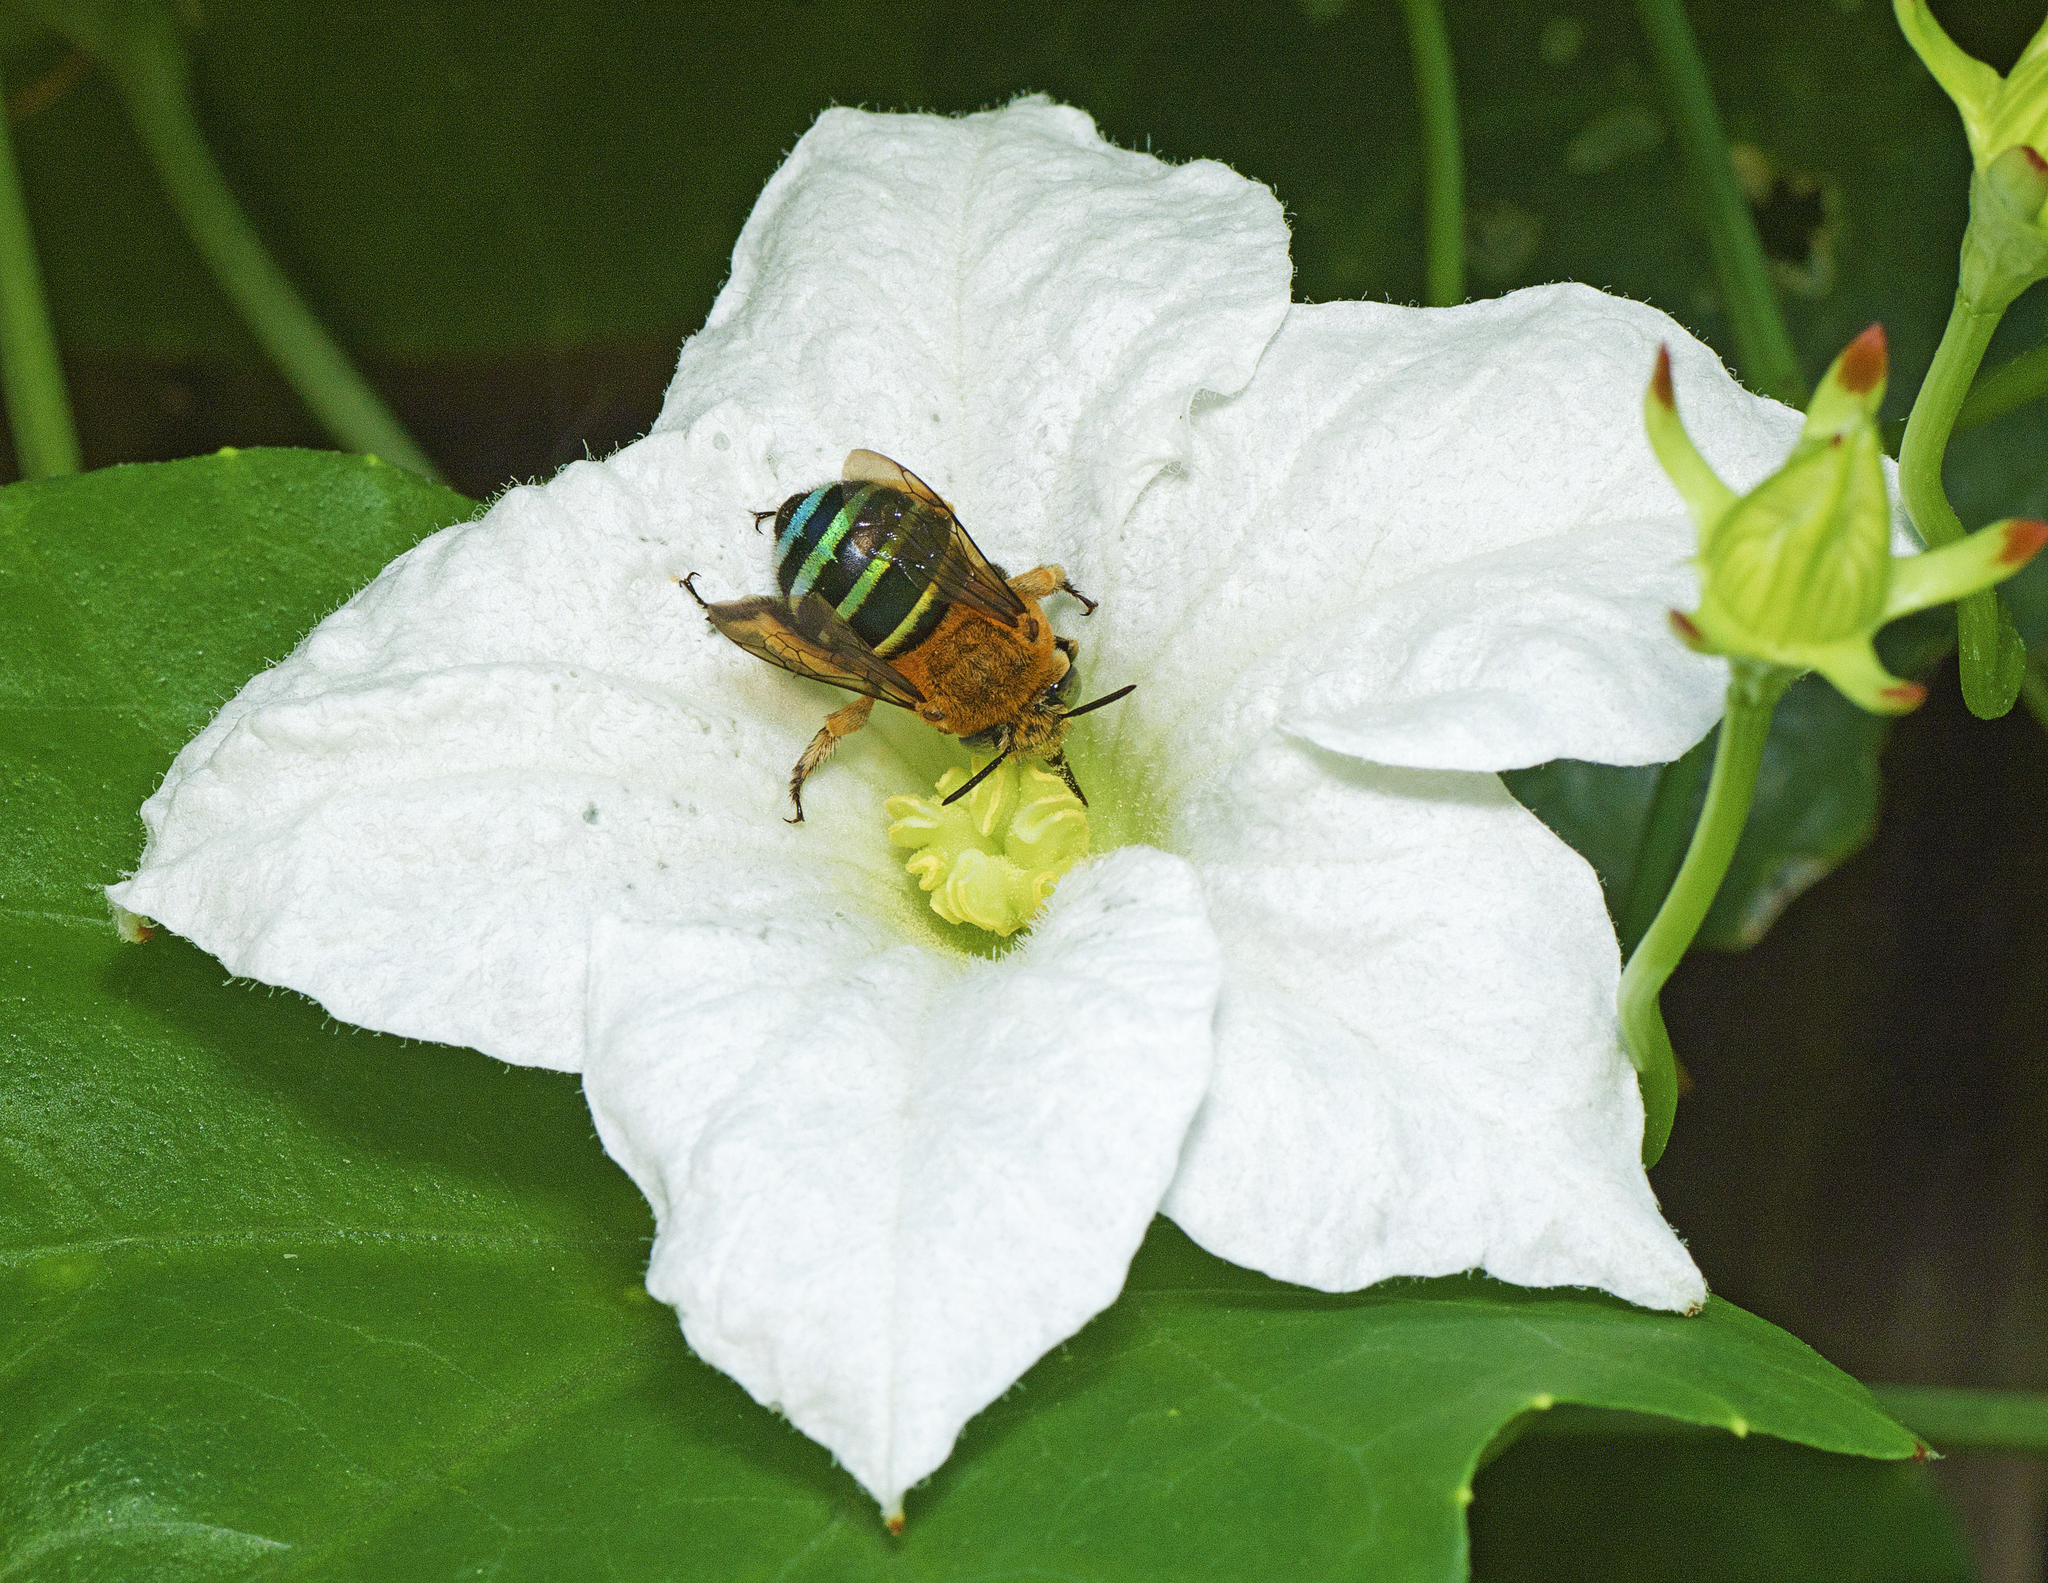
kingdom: Animalia
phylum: Arthropoda
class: Insecta
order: Hymenoptera
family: Apidae
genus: Amegilla
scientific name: Amegilla cingulata
